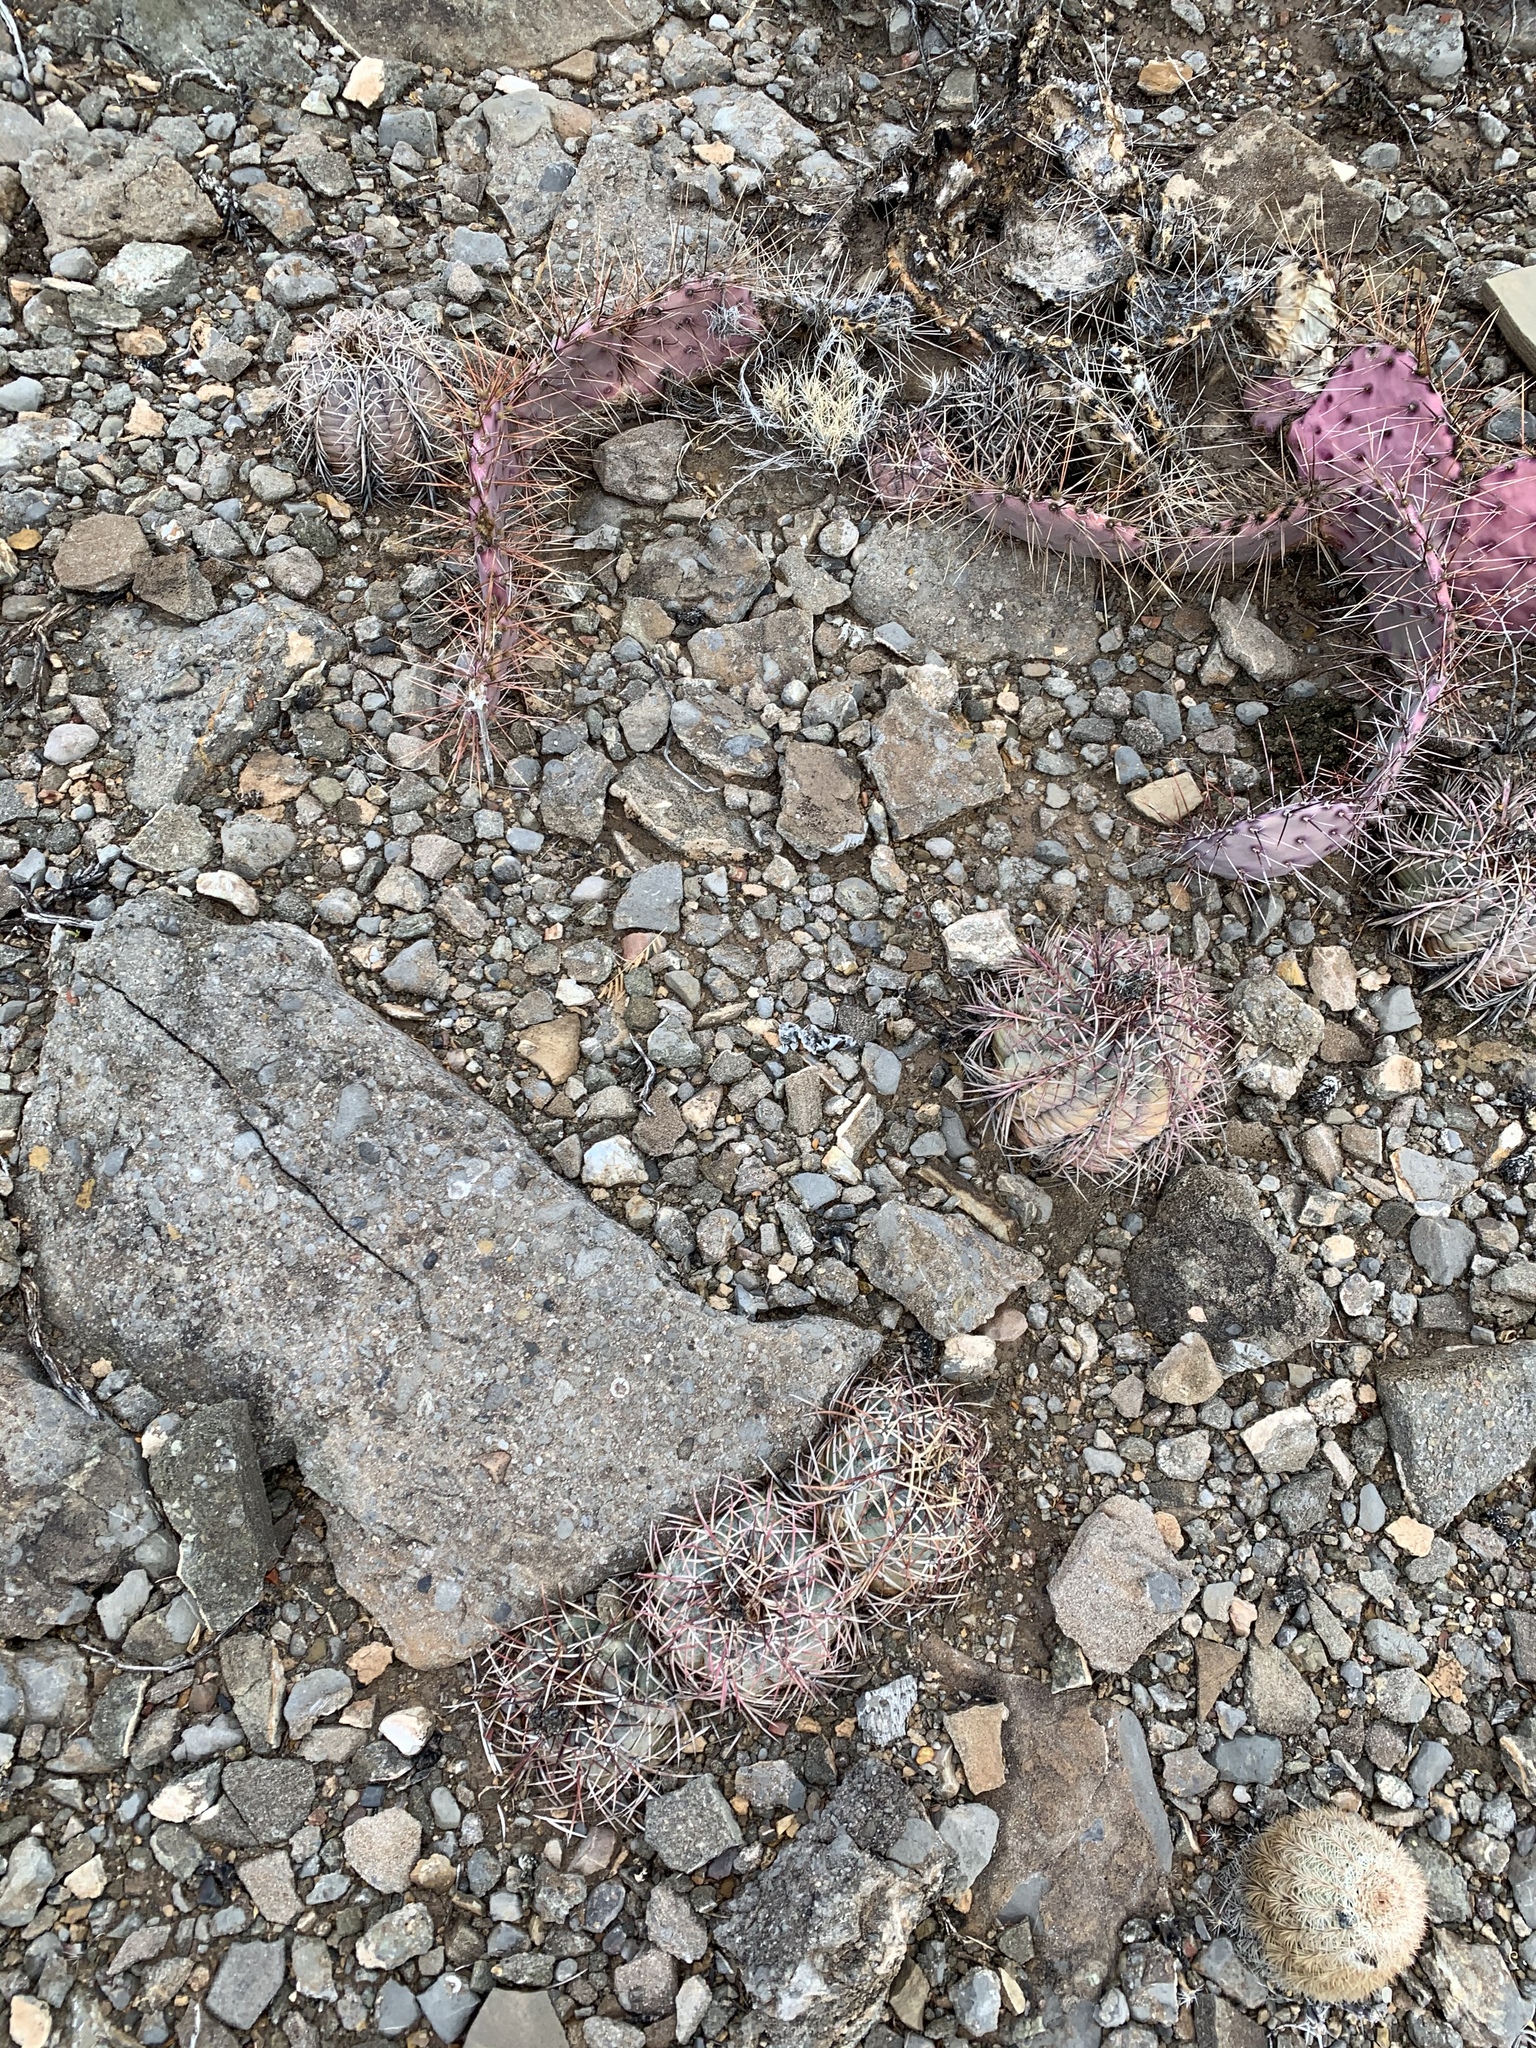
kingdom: Plantae
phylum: Tracheophyta
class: Magnoliopsida
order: Caryophyllales
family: Cactaceae
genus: Echinocactus
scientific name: Echinocactus horizonthalonius
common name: Devilshead
